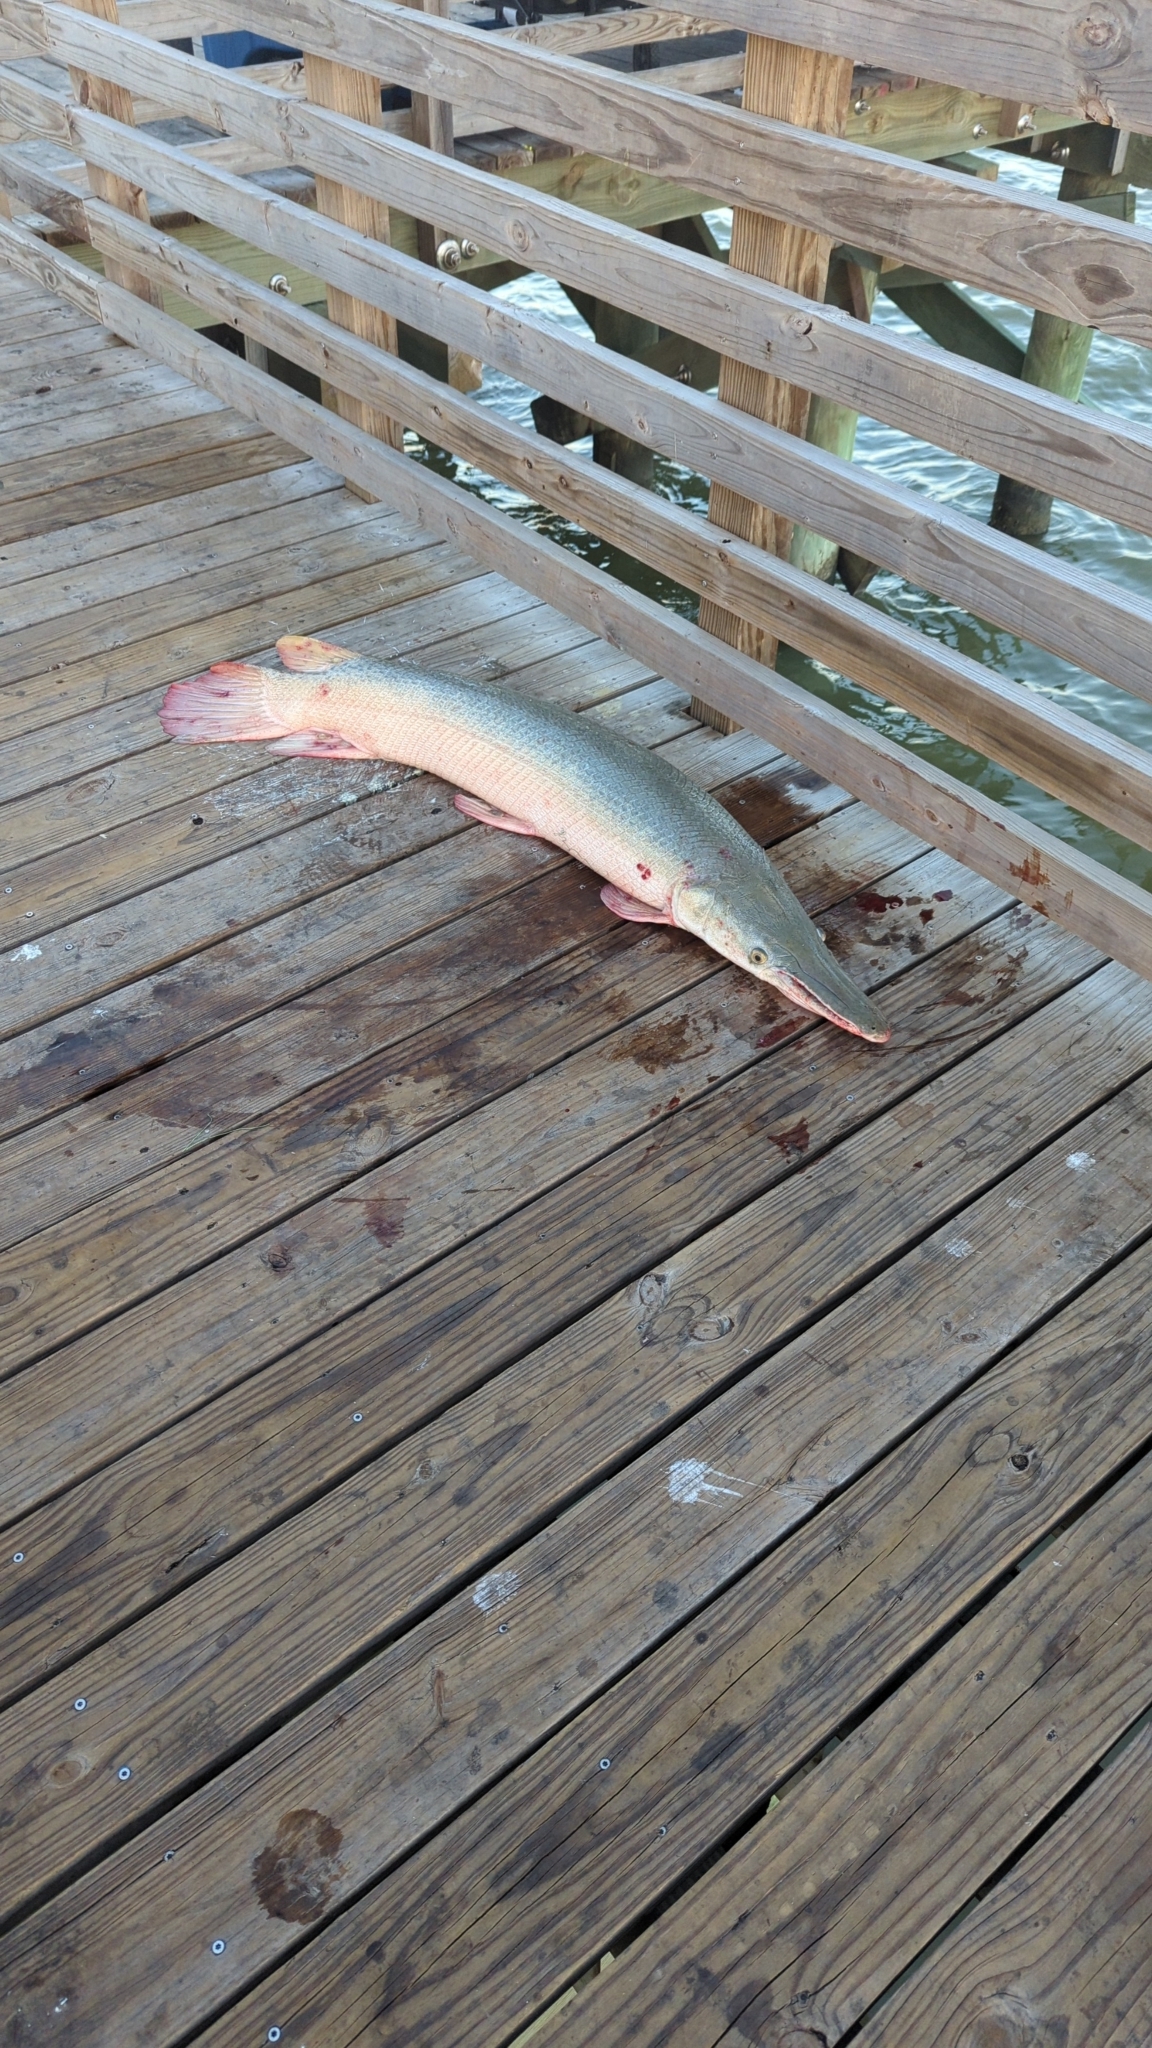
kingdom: Animalia
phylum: Chordata
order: Lepisosteiformes
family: Lepisosteidae
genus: Atractosteus
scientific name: Atractosteus spatula
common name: Alligator gar
